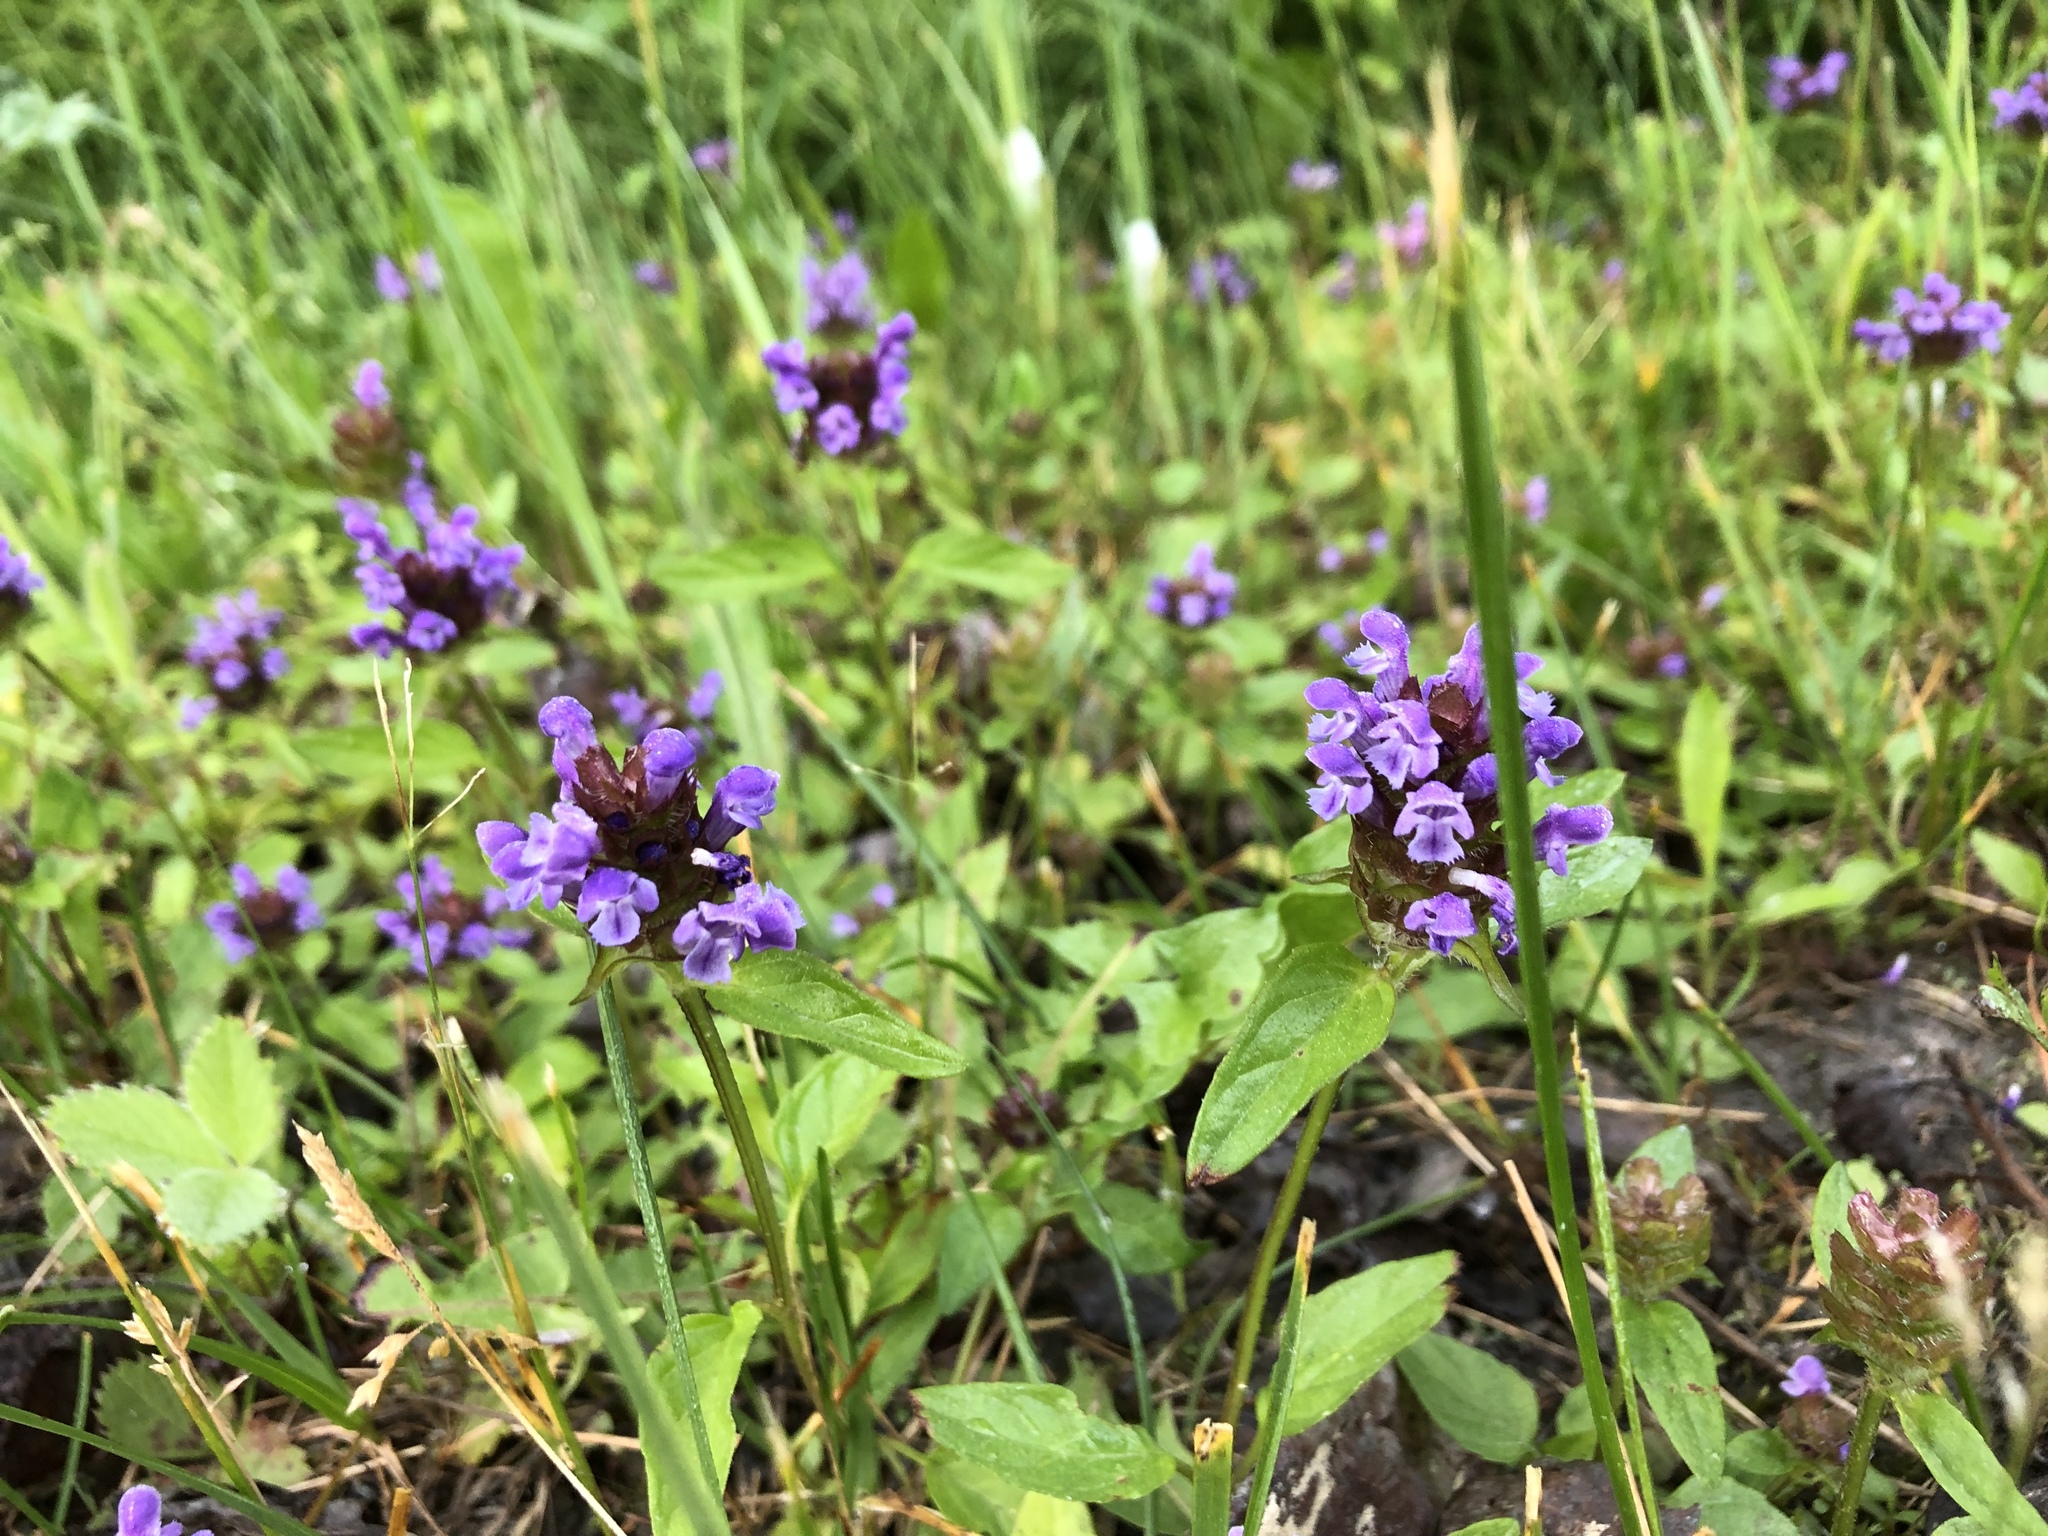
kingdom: Plantae
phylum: Tracheophyta
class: Magnoliopsida
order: Lamiales
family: Lamiaceae
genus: Prunella
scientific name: Prunella vulgaris
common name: Heal-all
